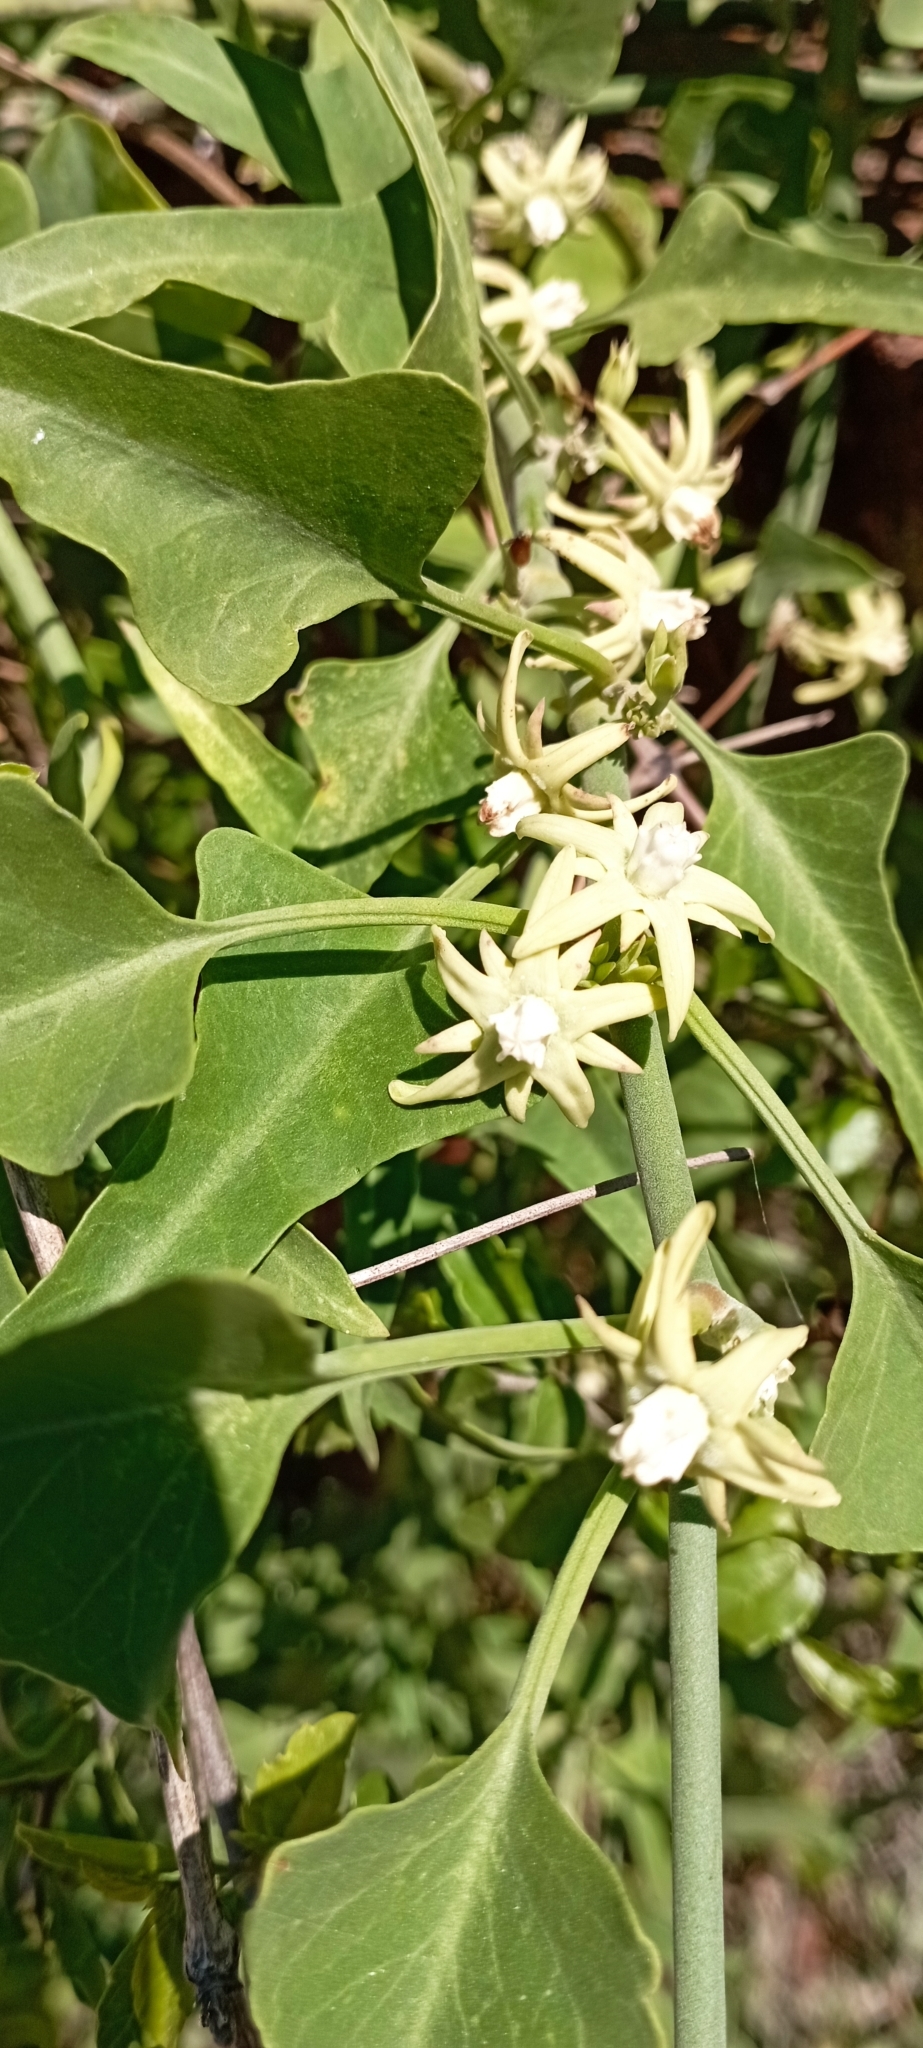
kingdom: Plantae
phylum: Tracheophyta
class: Magnoliopsida
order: Gentianales
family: Apocynaceae
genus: Araujia
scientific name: Araujia odorata
